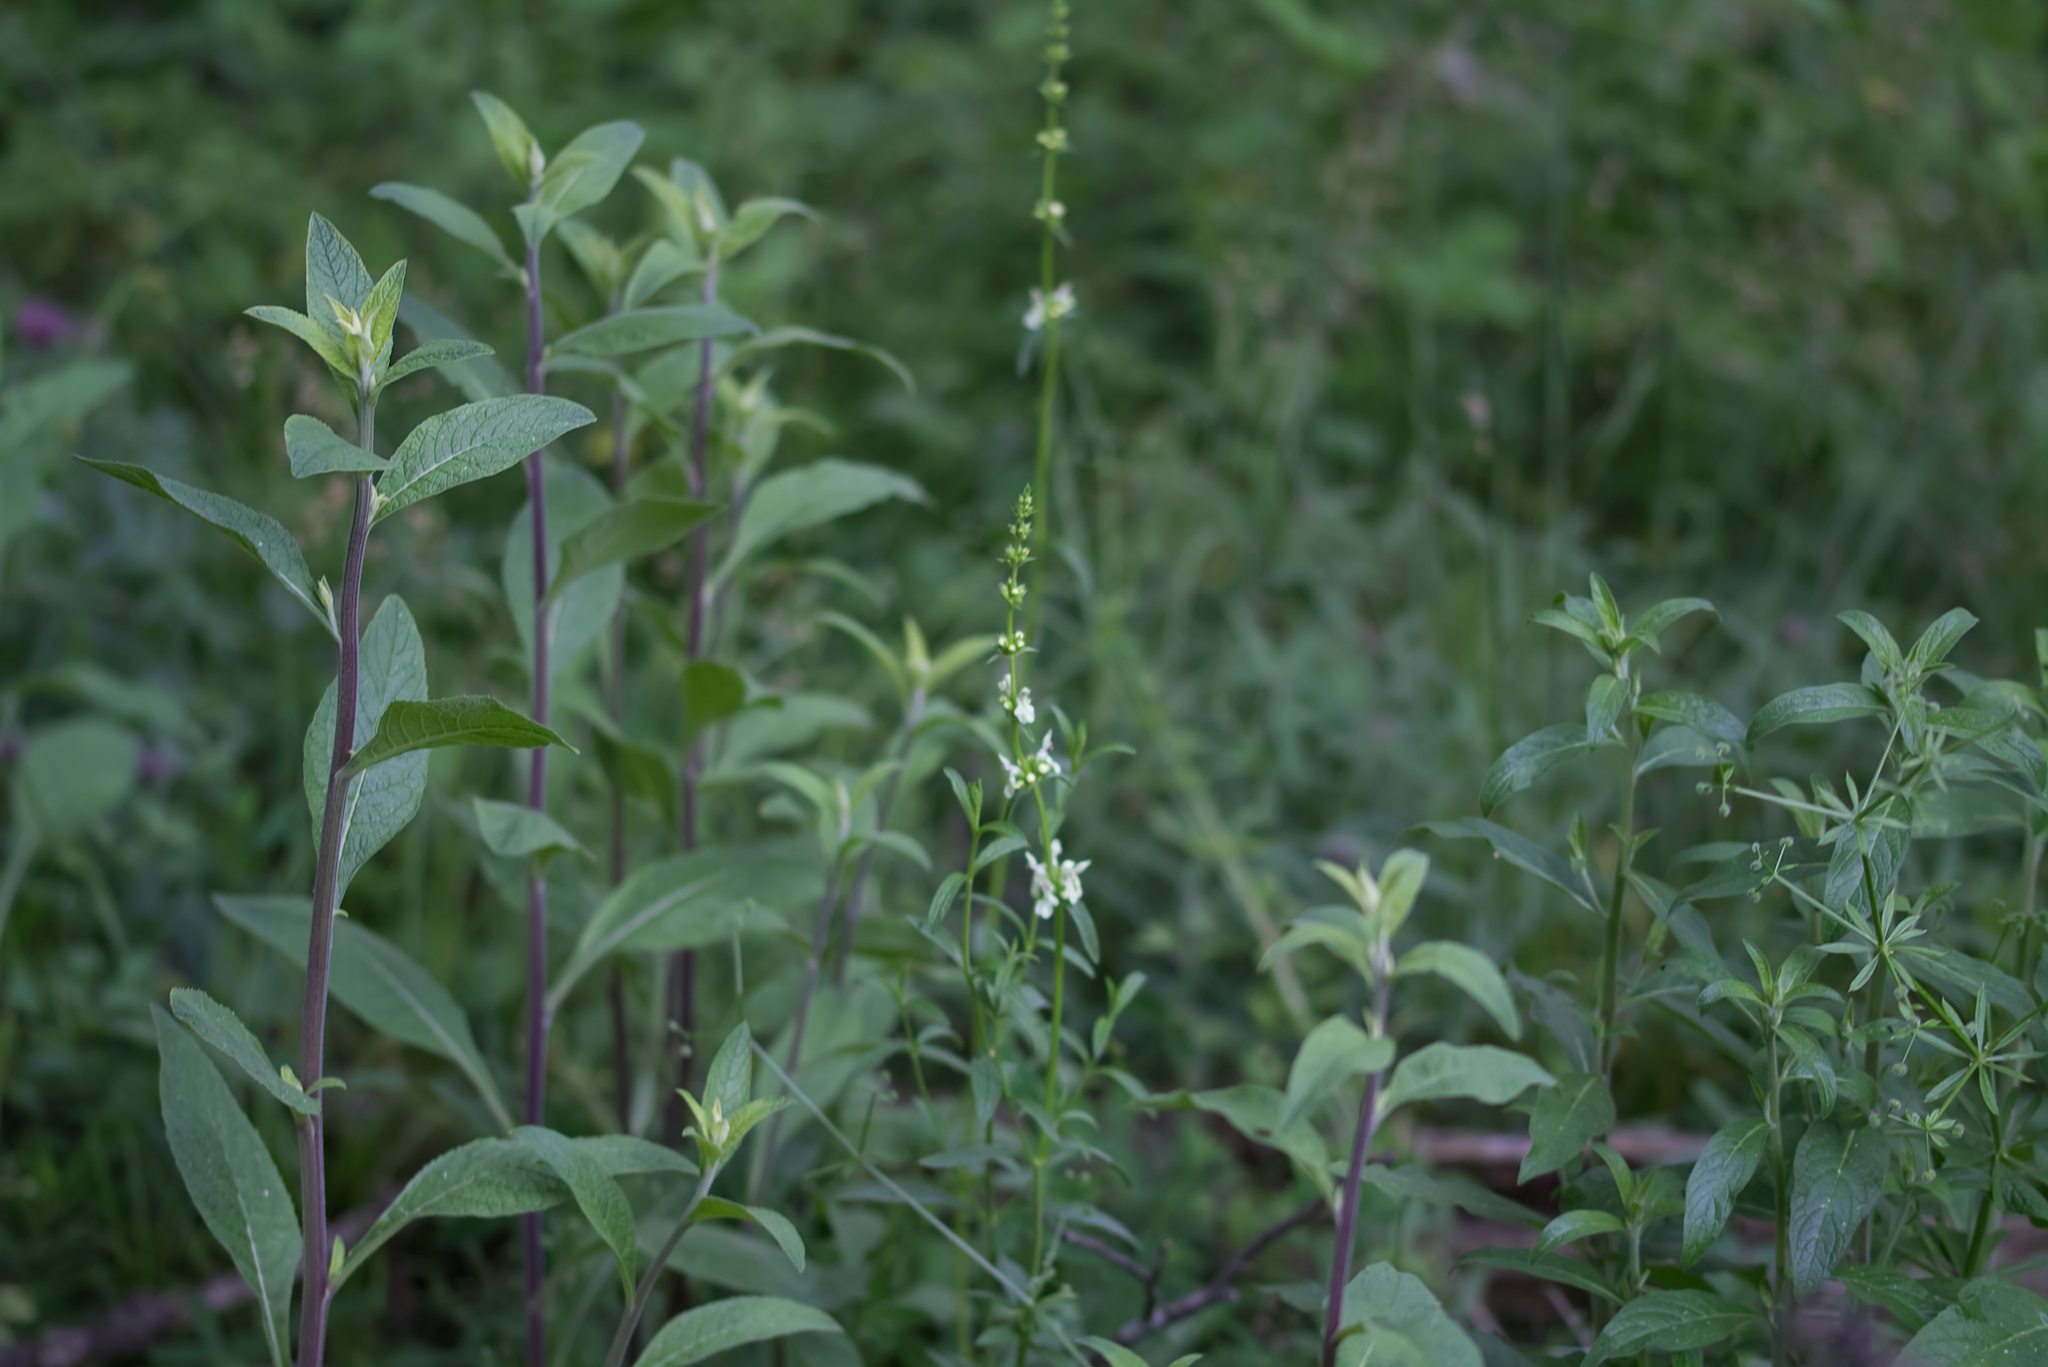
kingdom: Plantae
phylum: Tracheophyta
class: Magnoliopsida
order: Lamiales
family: Lamiaceae
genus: Stachys
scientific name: Stachys recta
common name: Perennial yellow-woundwort
